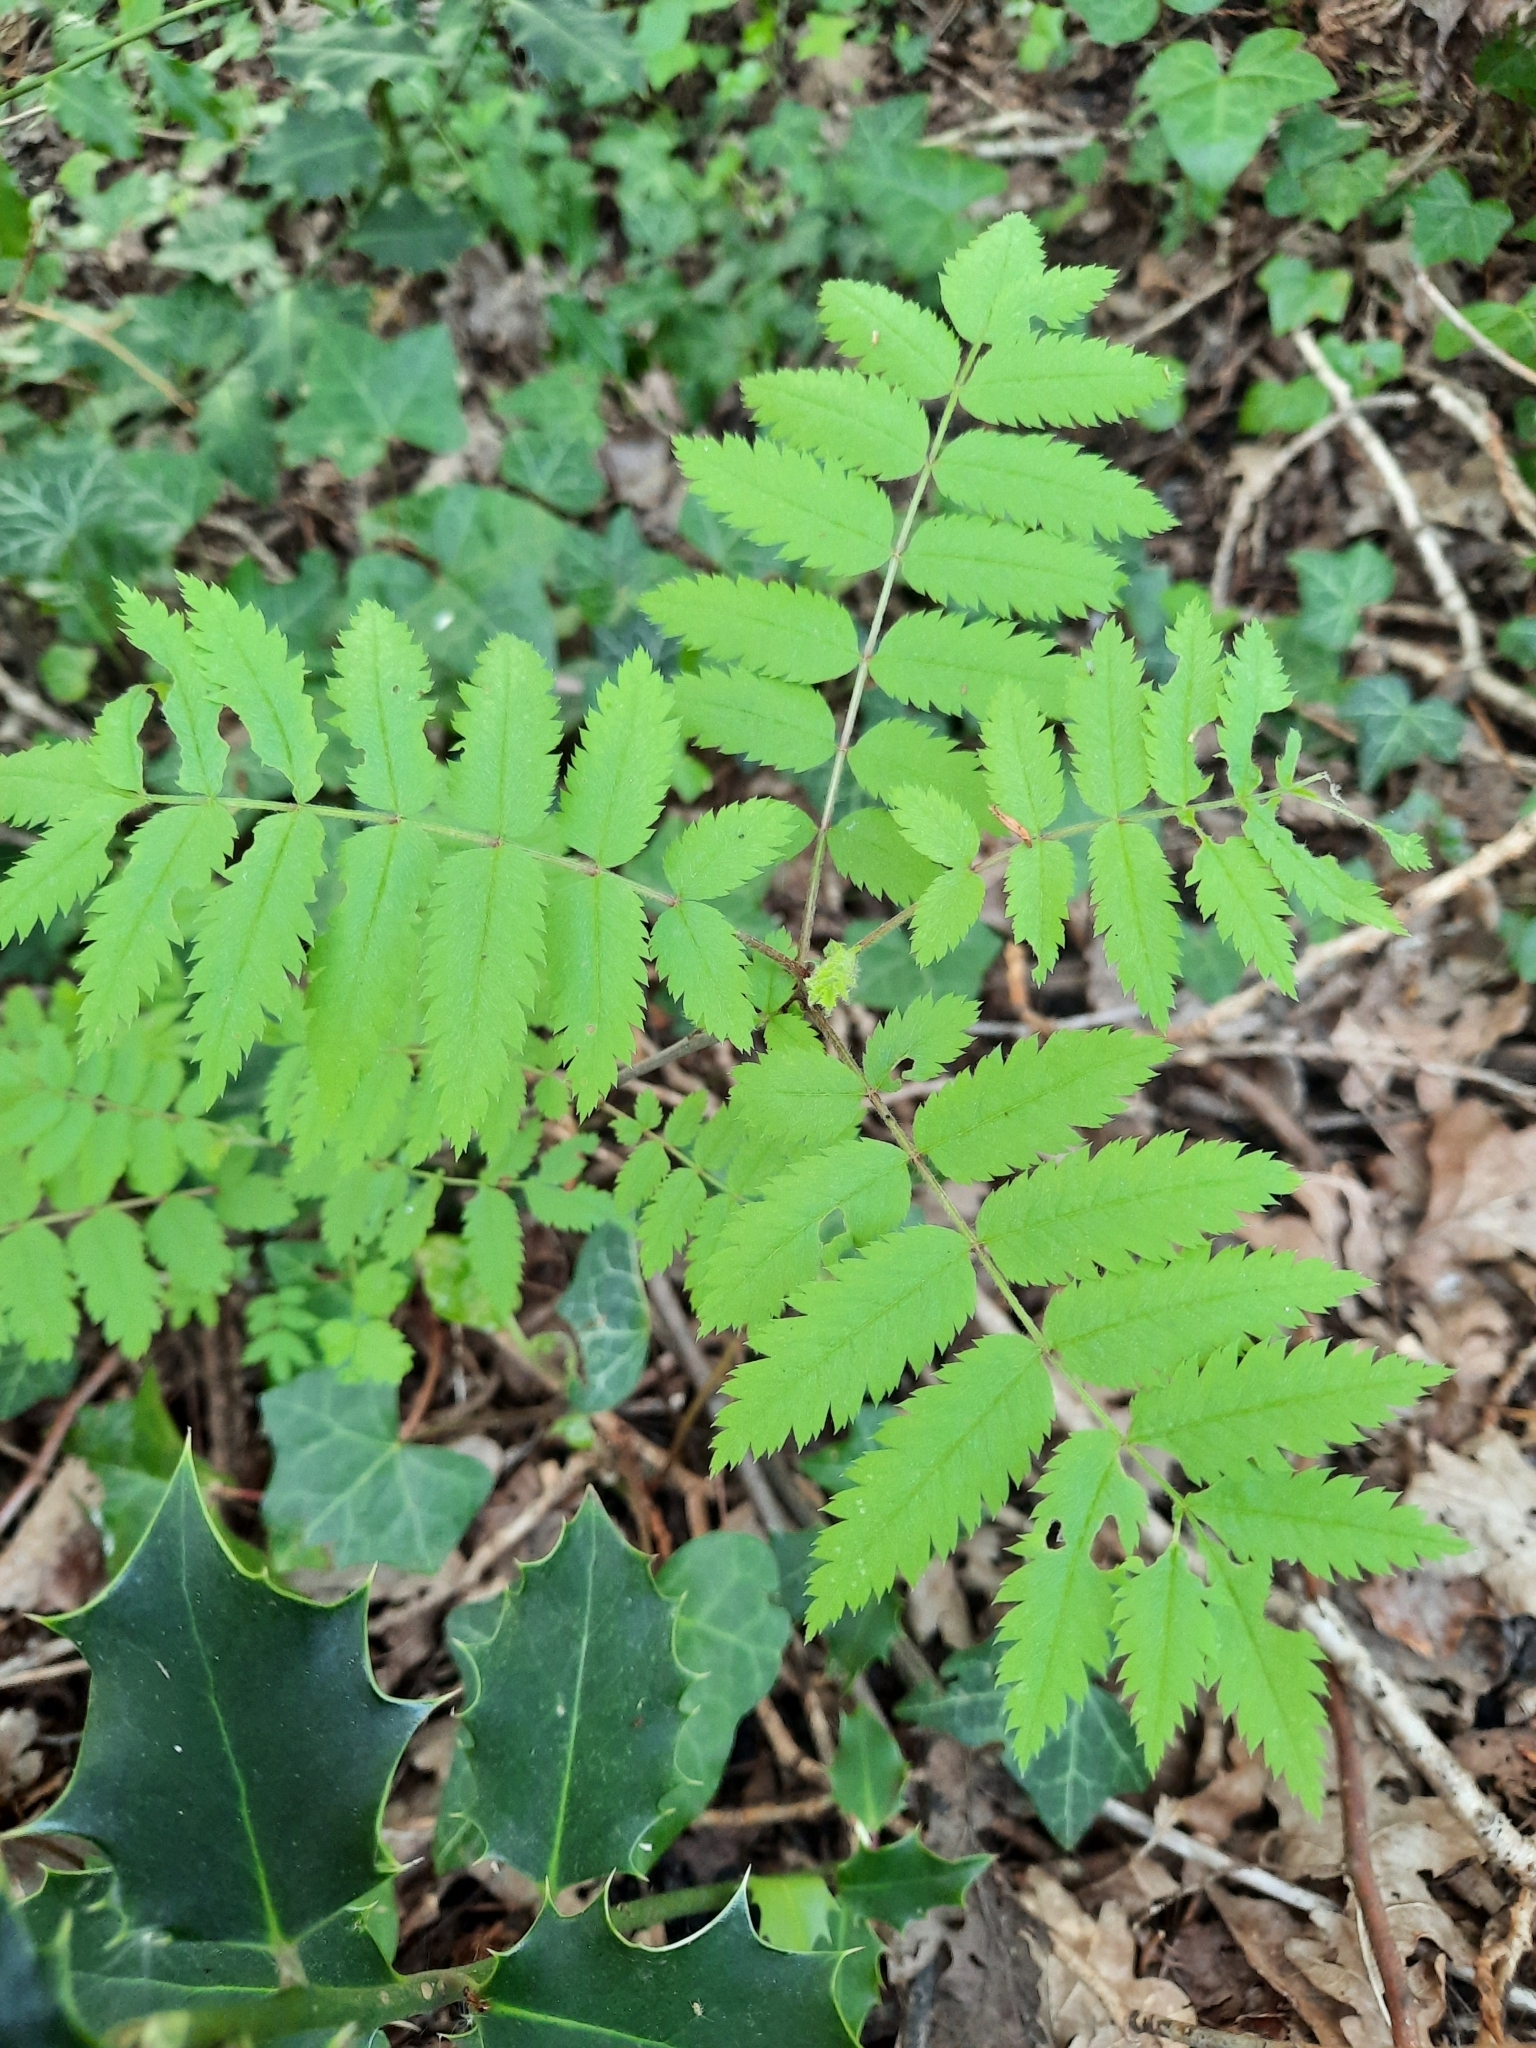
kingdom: Plantae
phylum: Tracheophyta
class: Magnoliopsida
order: Rosales
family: Rosaceae
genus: Sorbus
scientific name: Sorbus aucuparia
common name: Rowan
